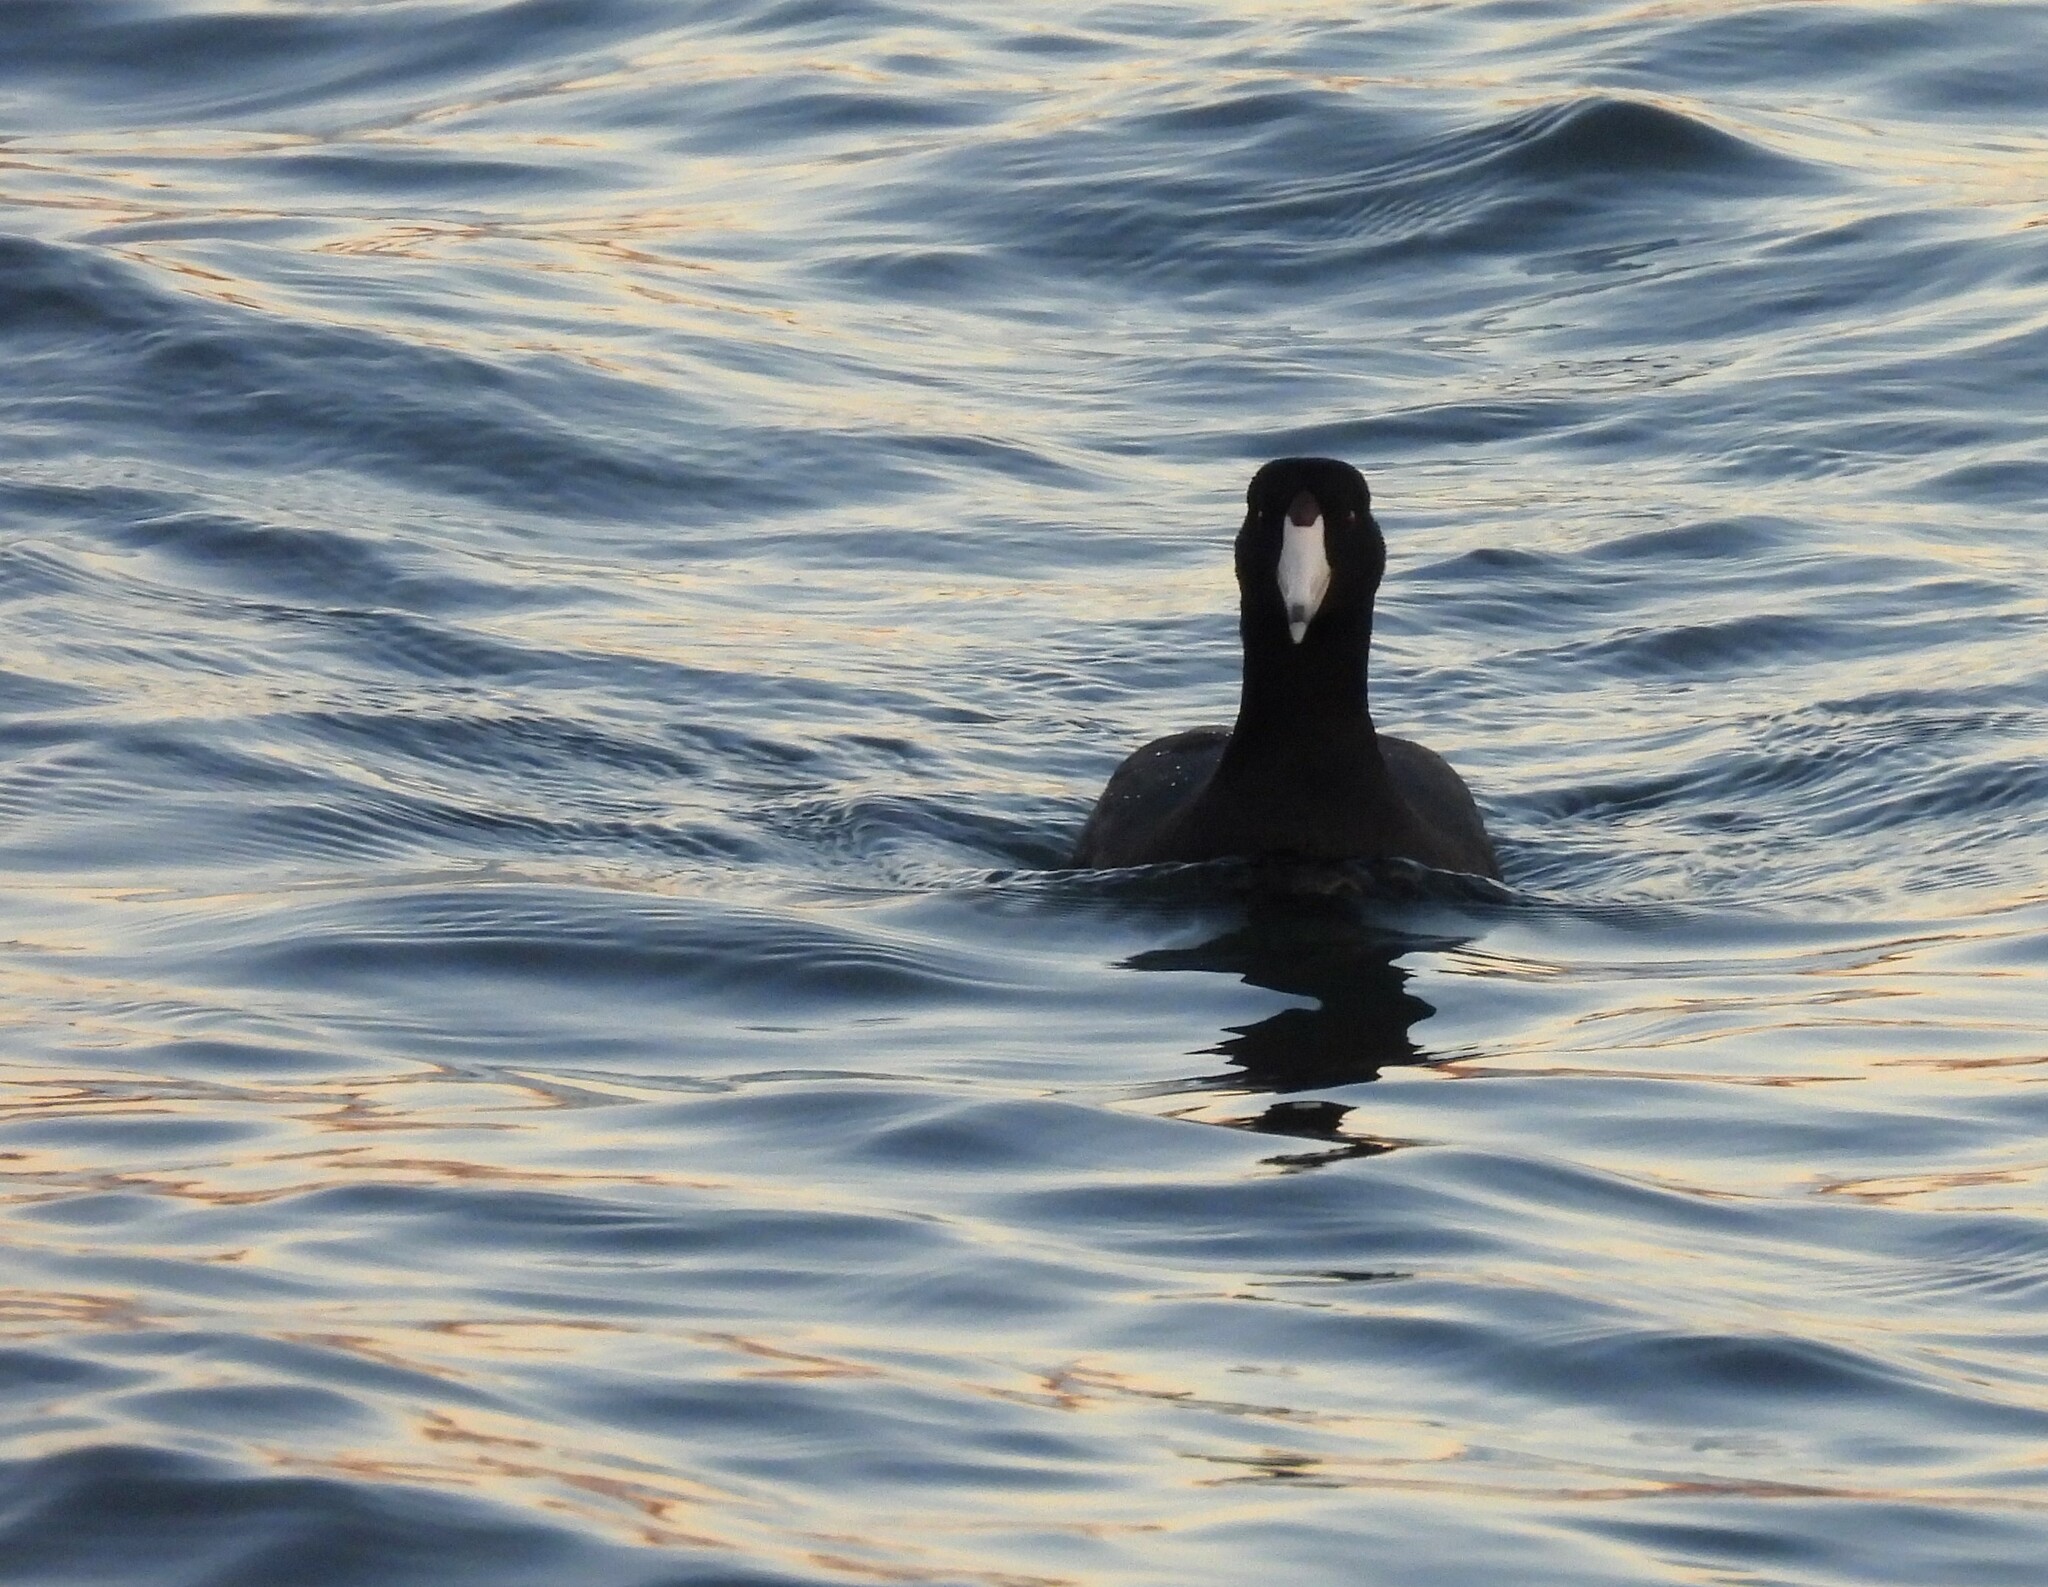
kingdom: Animalia
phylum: Chordata
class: Aves
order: Gruiformes
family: Rallidae
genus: Fulica
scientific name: Fulica americana
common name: American coot
